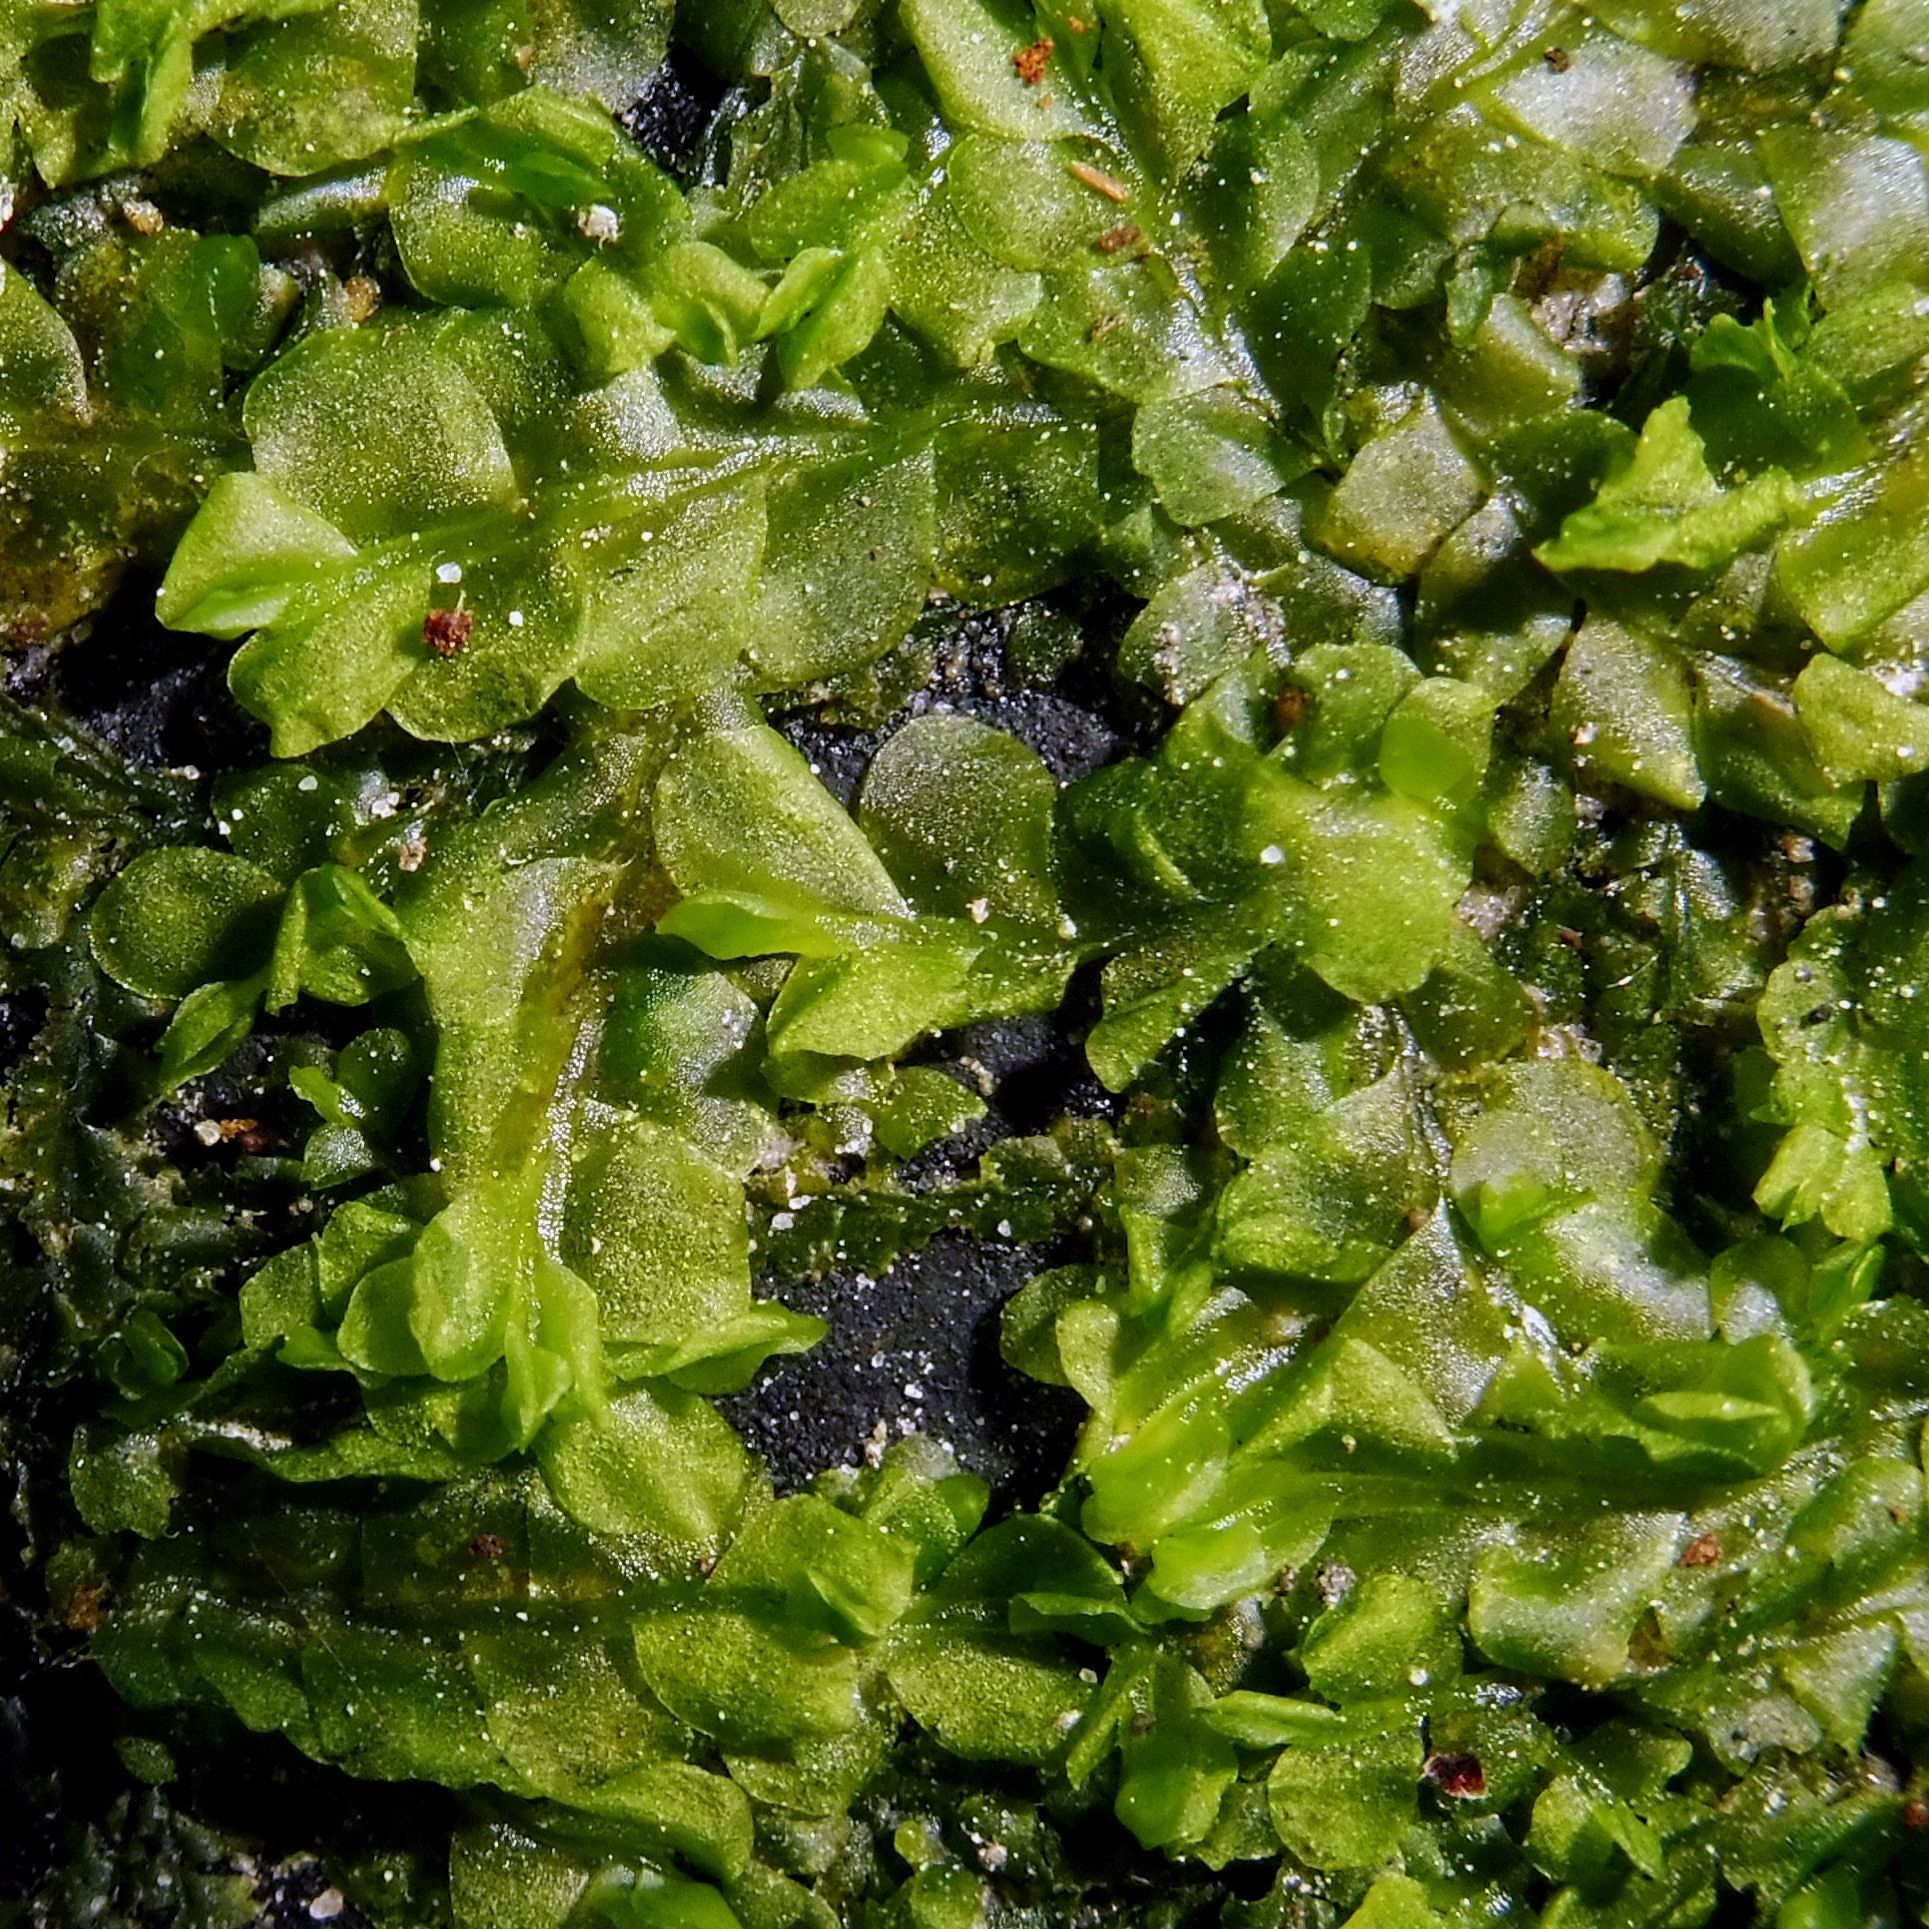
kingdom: Plantae
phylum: Marchantiophyta
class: Jungermanniopsida
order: Jungermanniales
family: Lophocoleaceae
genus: Chiloscyphus
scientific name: Chiloscyphus polyanthos
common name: Square-leaved crestwort
